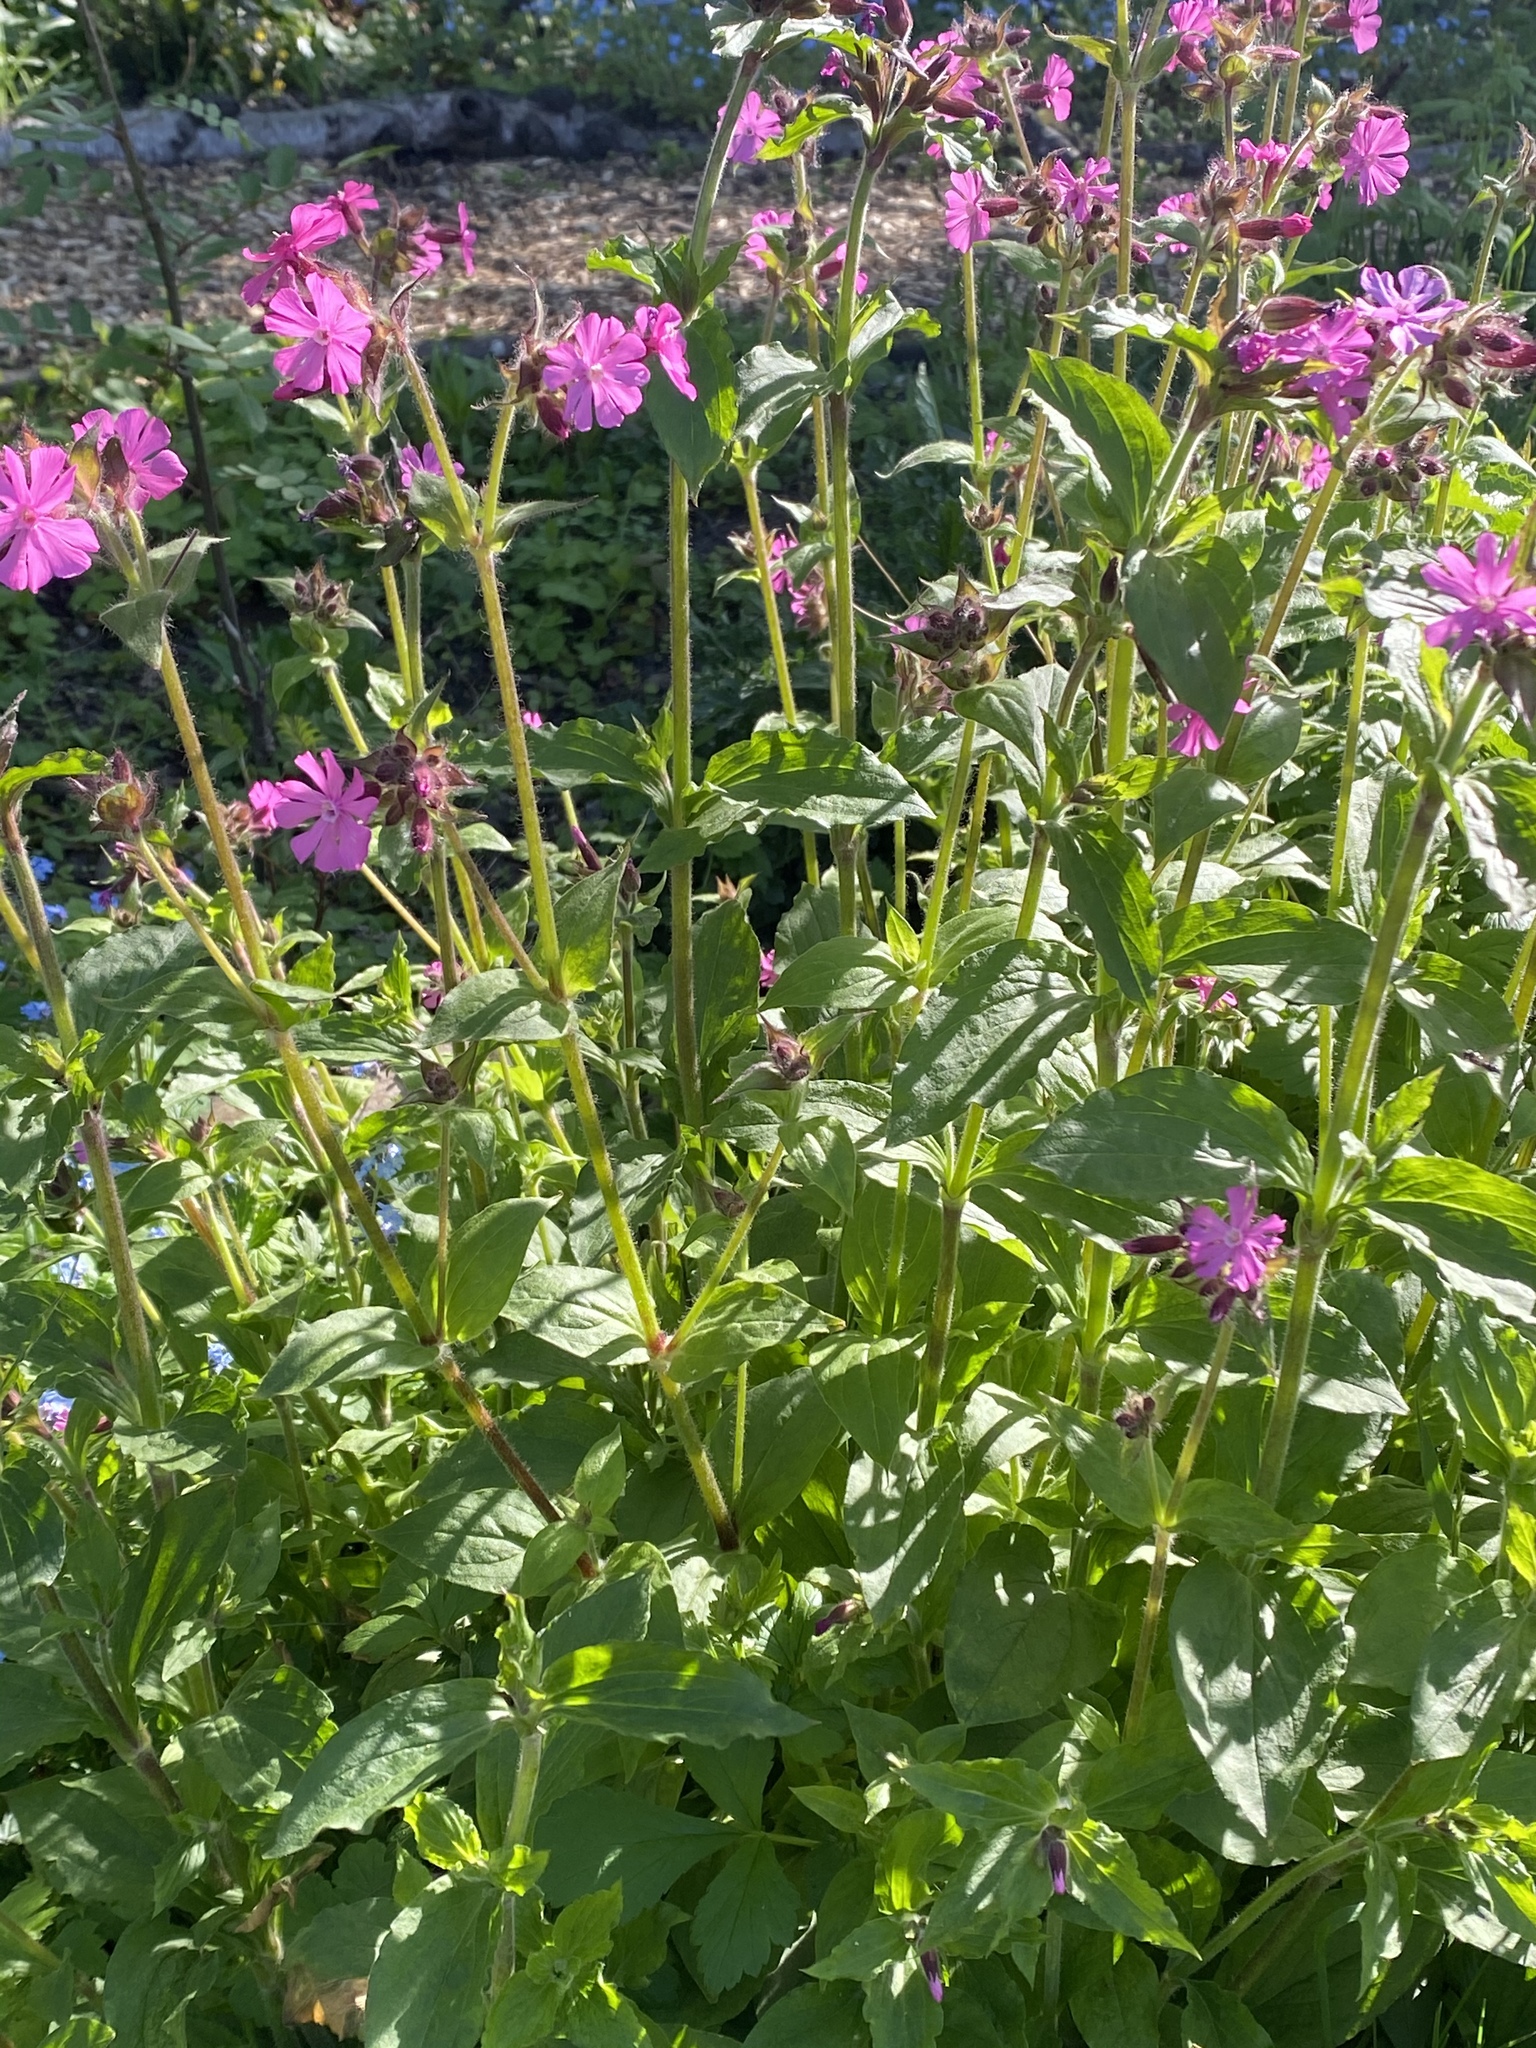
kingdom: Plantae
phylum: Tracheophyta
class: Magnoliopsida
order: Caryophyllales
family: Caryophyllaceae
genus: Silene
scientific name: Silene dioica
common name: Red campion
